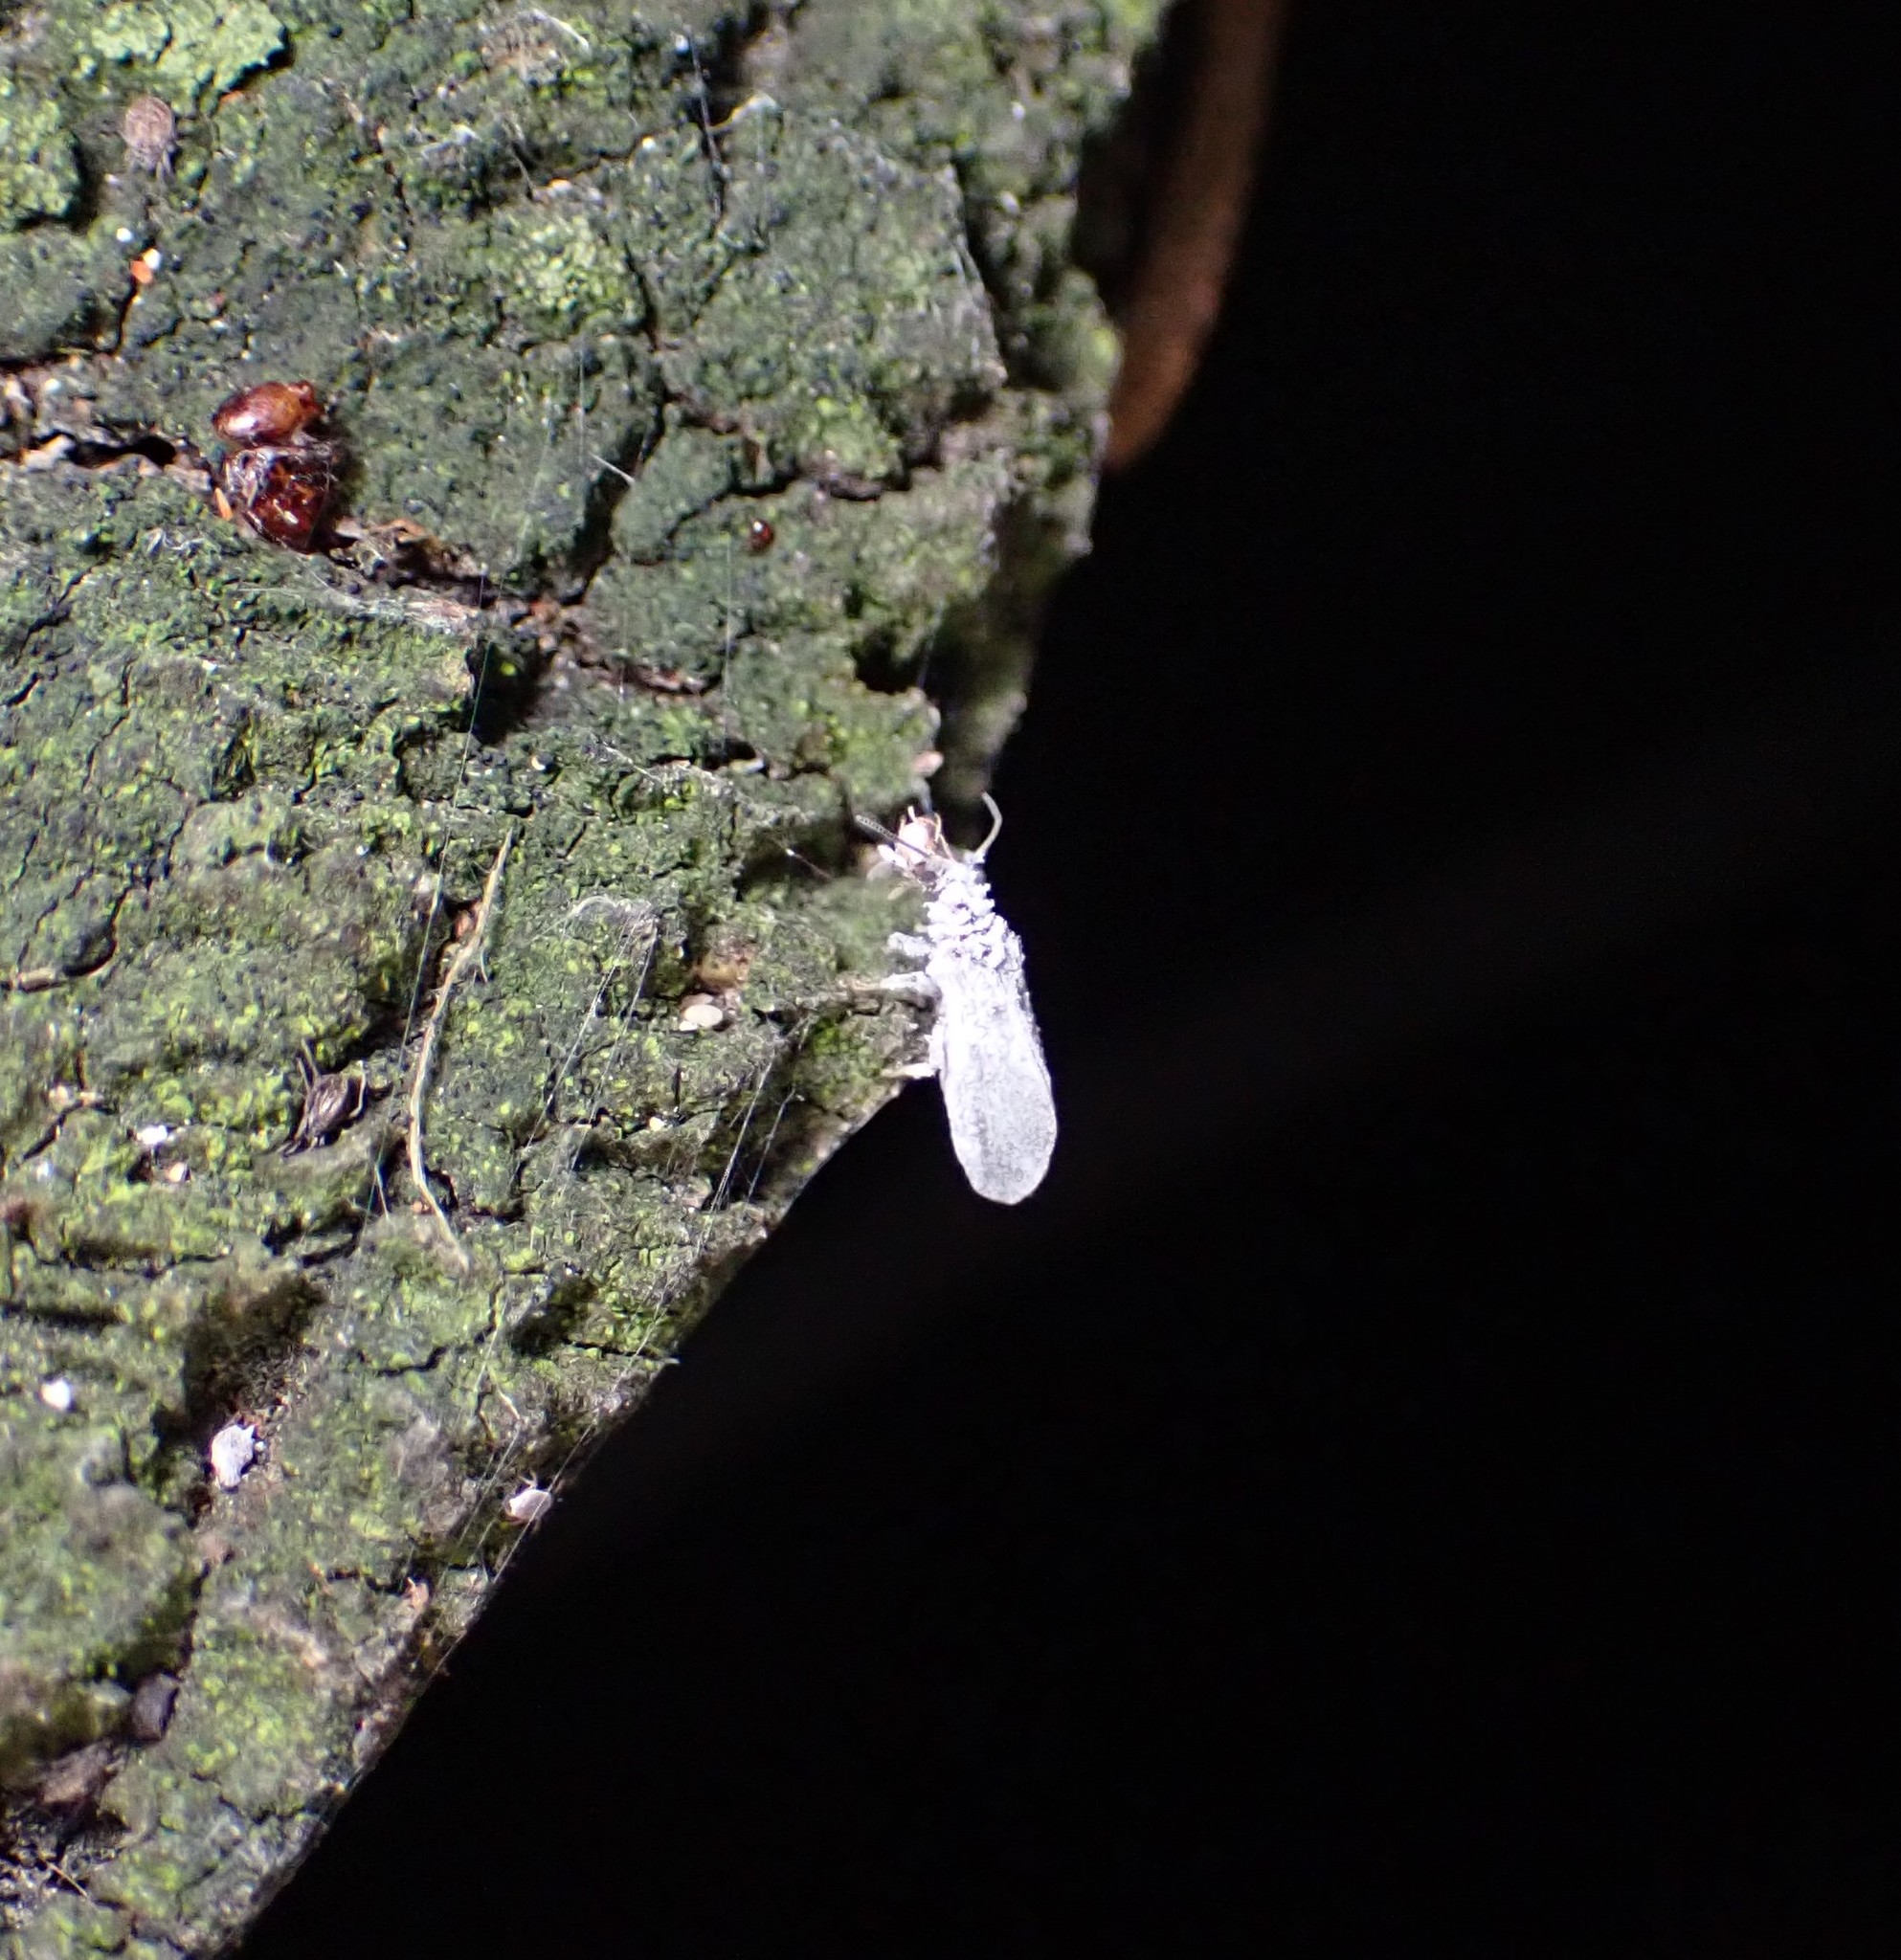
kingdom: Animalia
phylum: Arthropoda
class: Insecta
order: Neuroptera
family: Coniopterygidae
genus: Cryptoscenea
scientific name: Cryptoscenea australiensis
